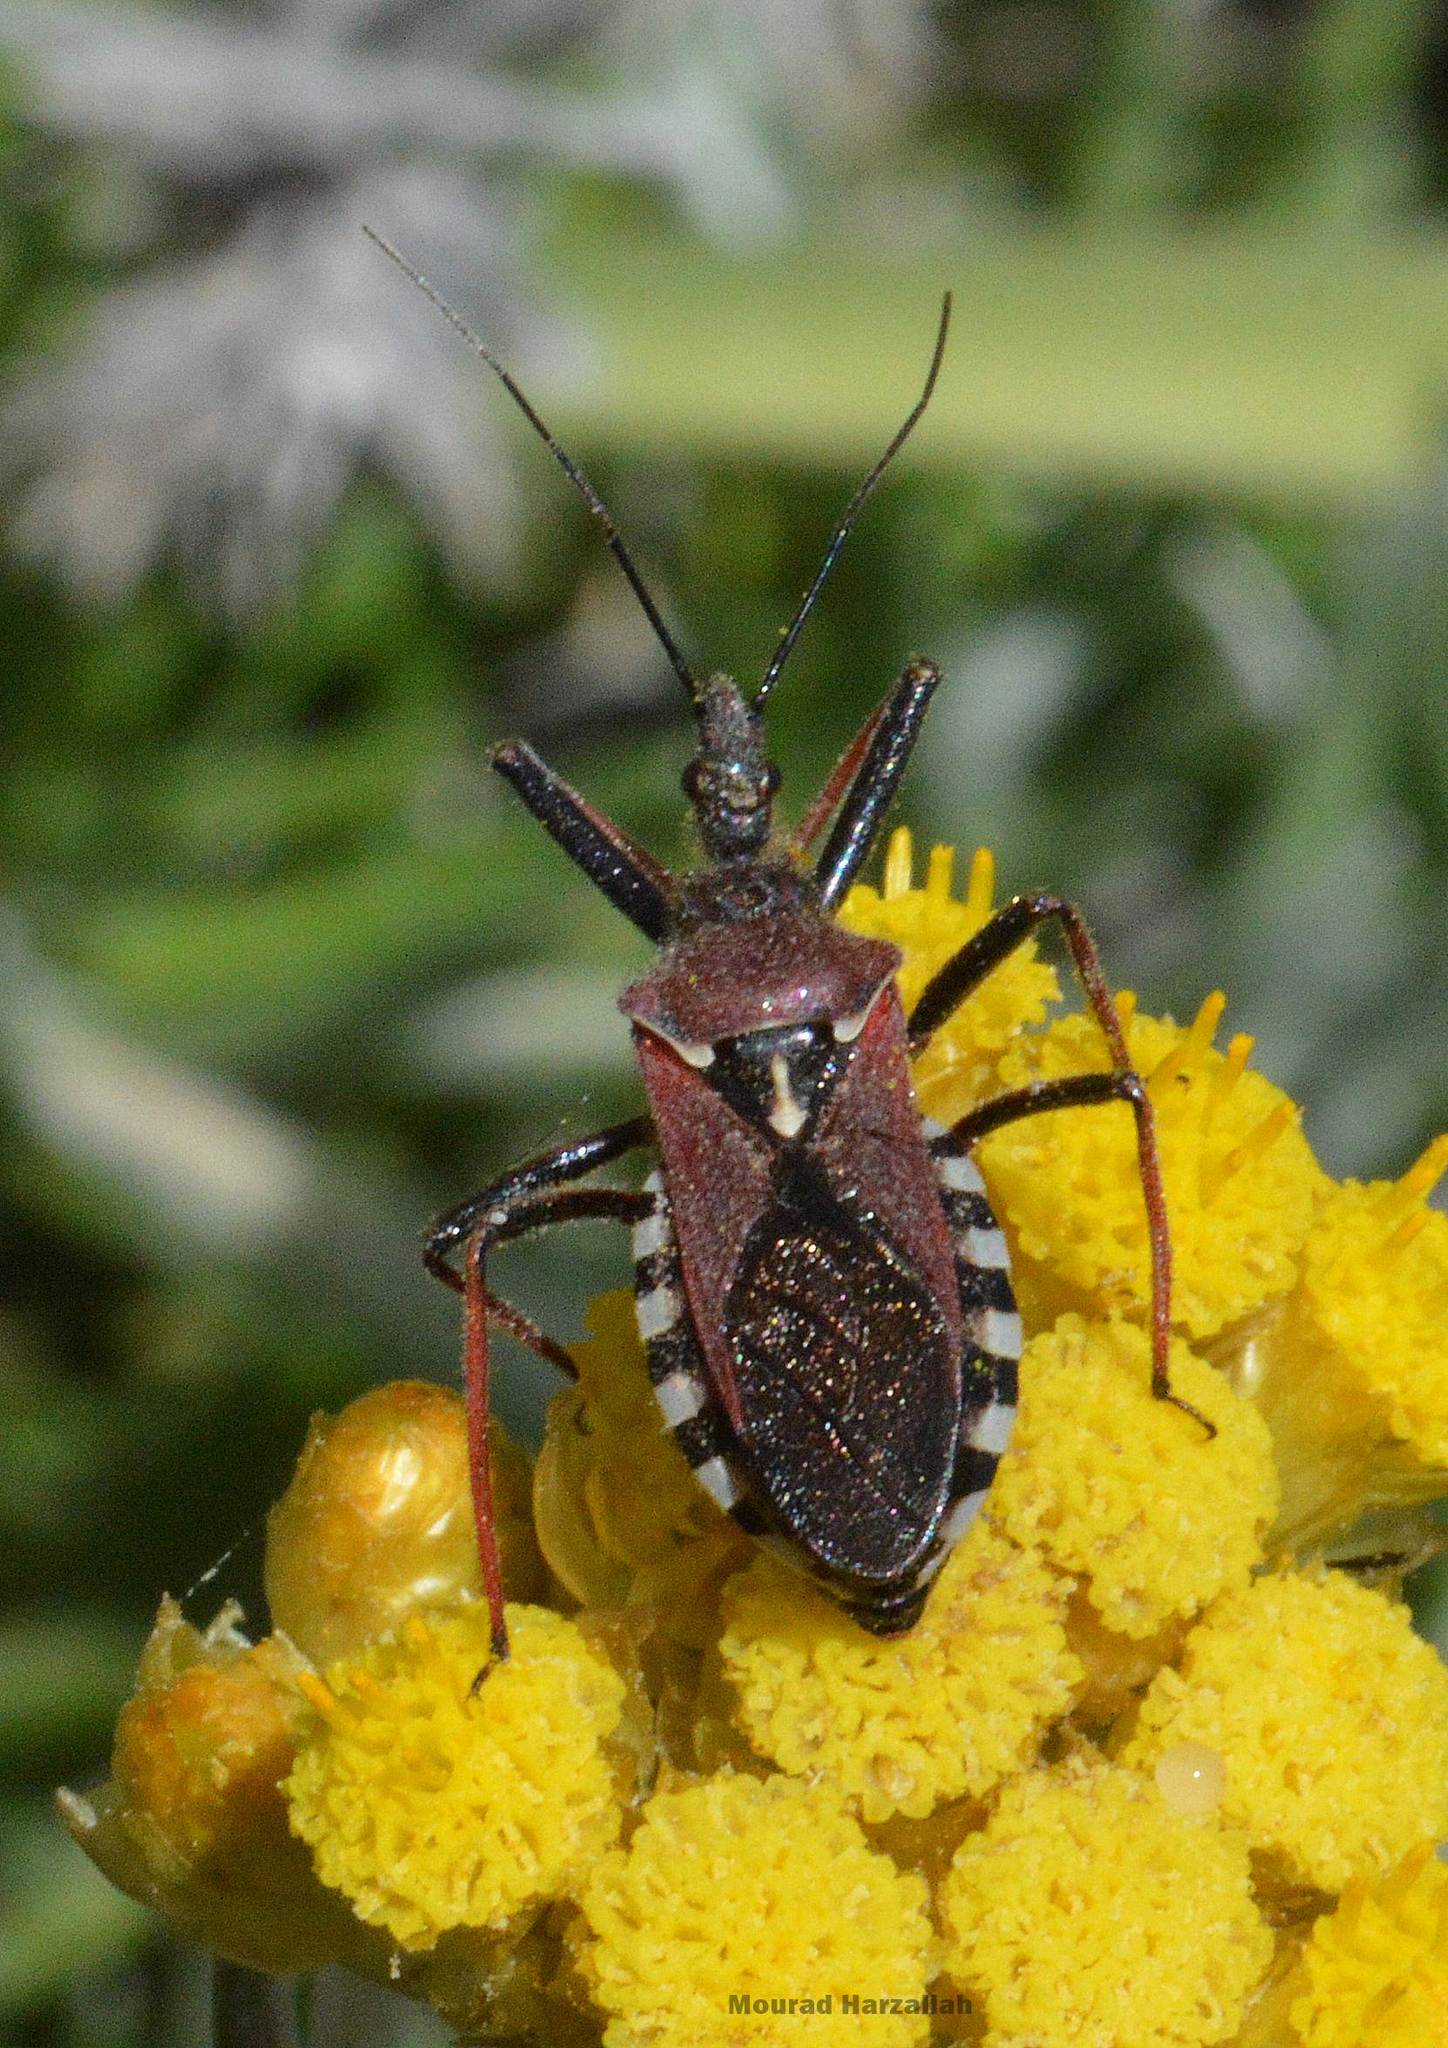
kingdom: Animalia
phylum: Arthropoda
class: Insecta
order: Hemiptera
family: Reduviidae
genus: Rhynocoris
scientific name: Rhynocoris erythropus
